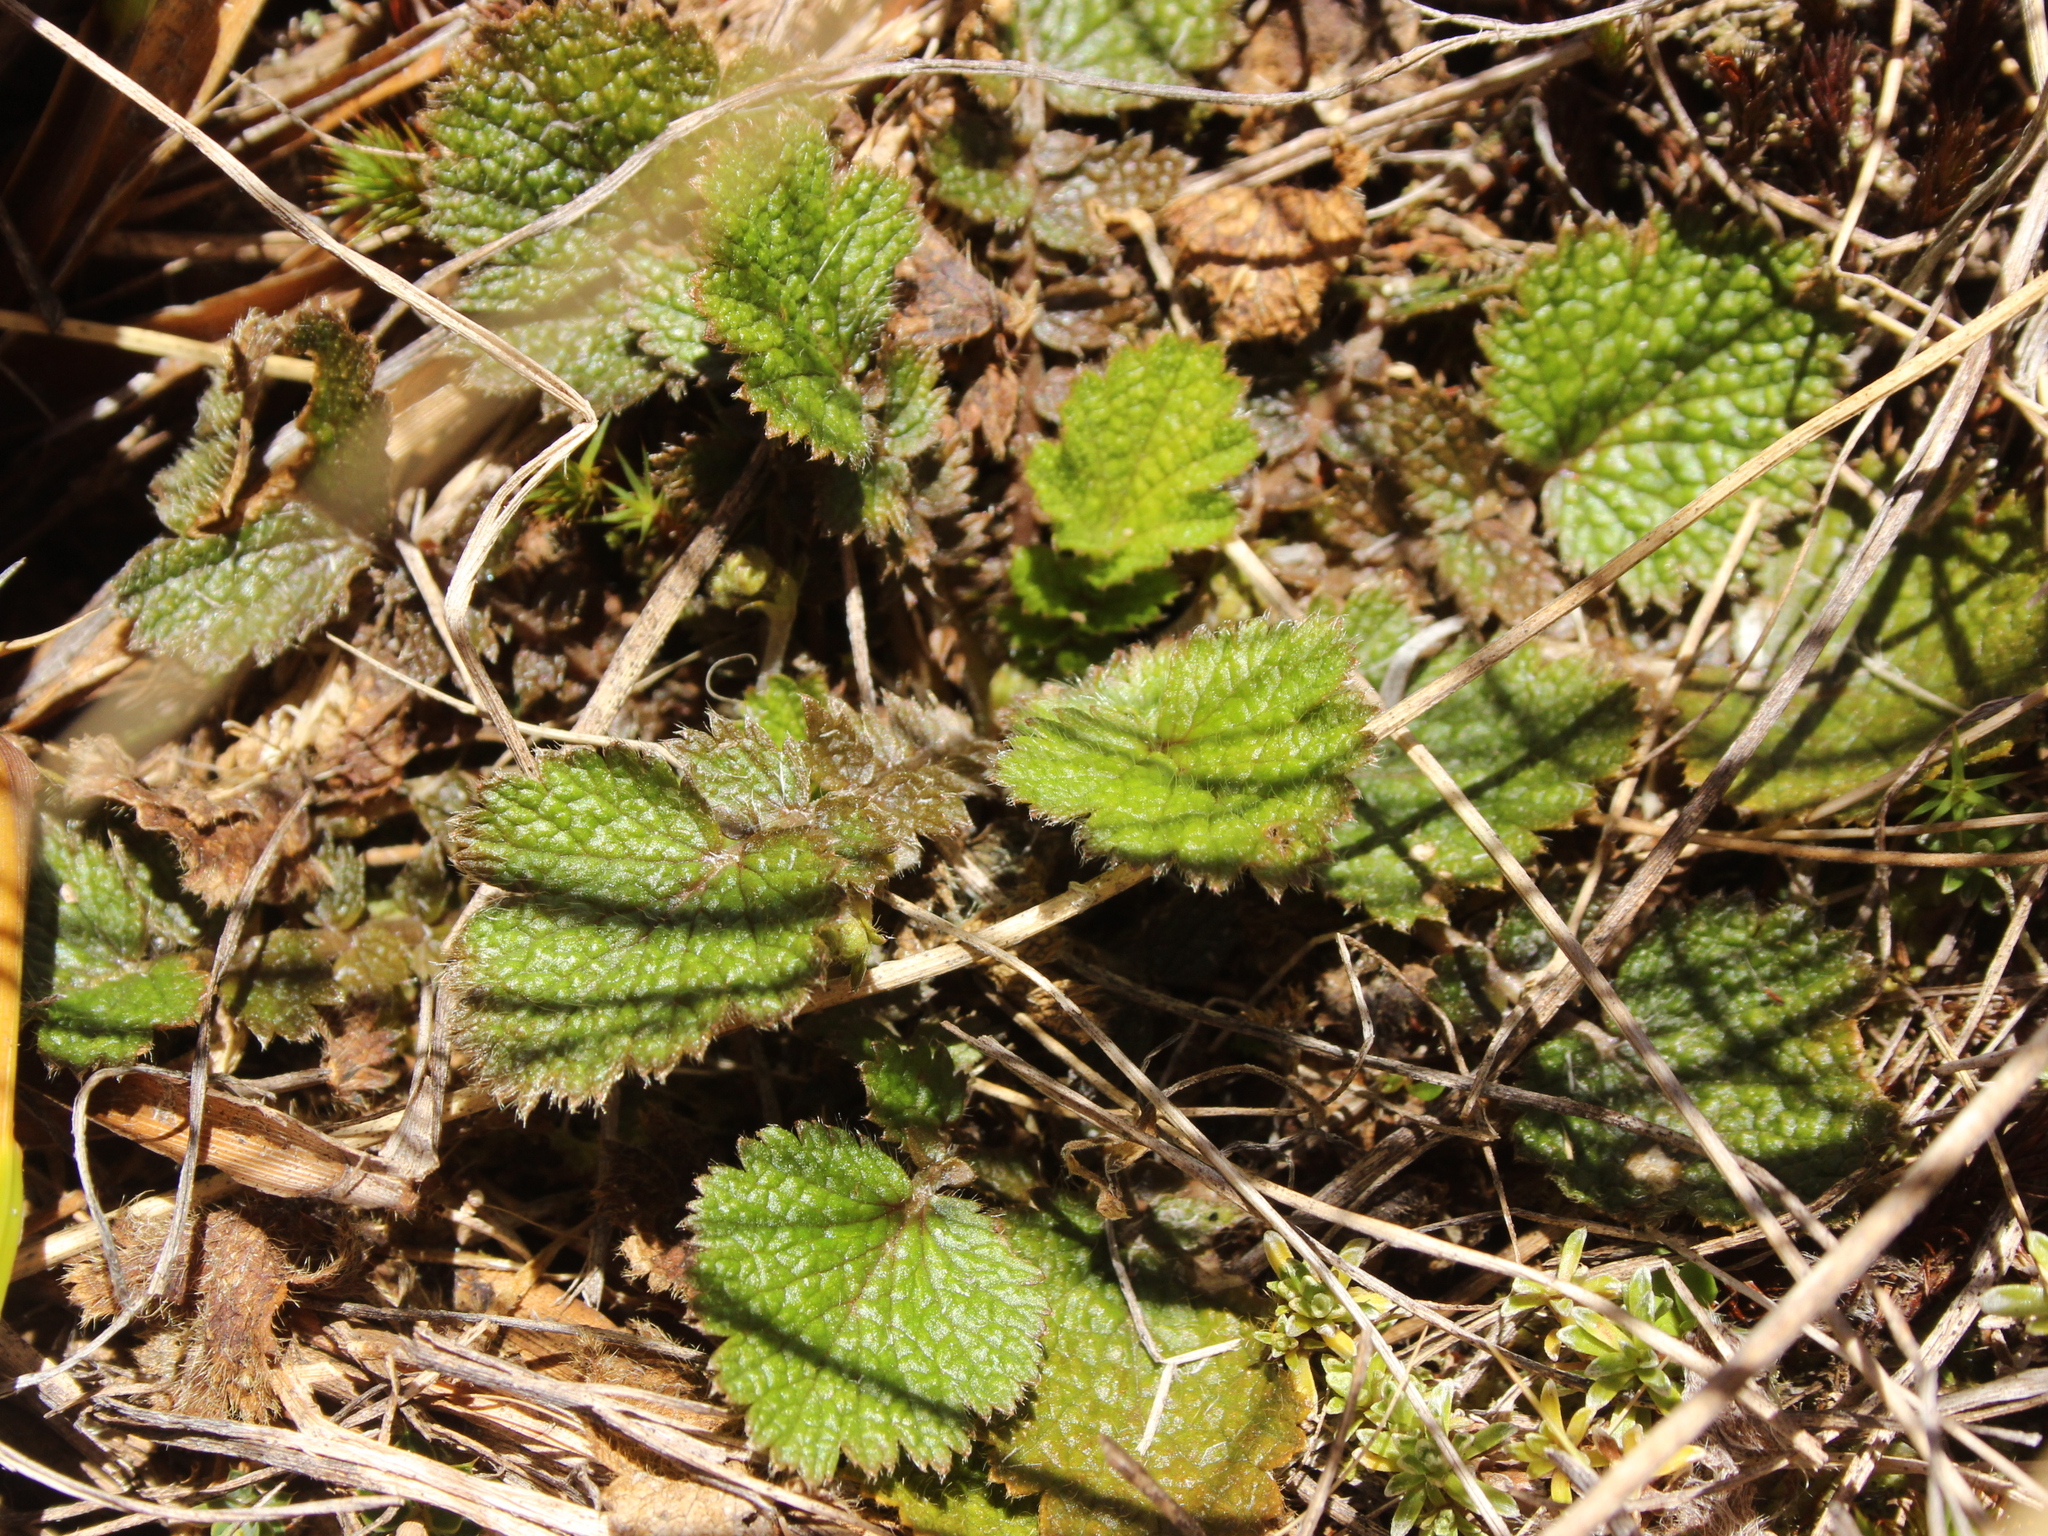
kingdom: Plantae
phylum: Tracheophyta
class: Magnoliopsida
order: Rosales
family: Rosaceae
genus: Geum
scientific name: Geum uniflorum
